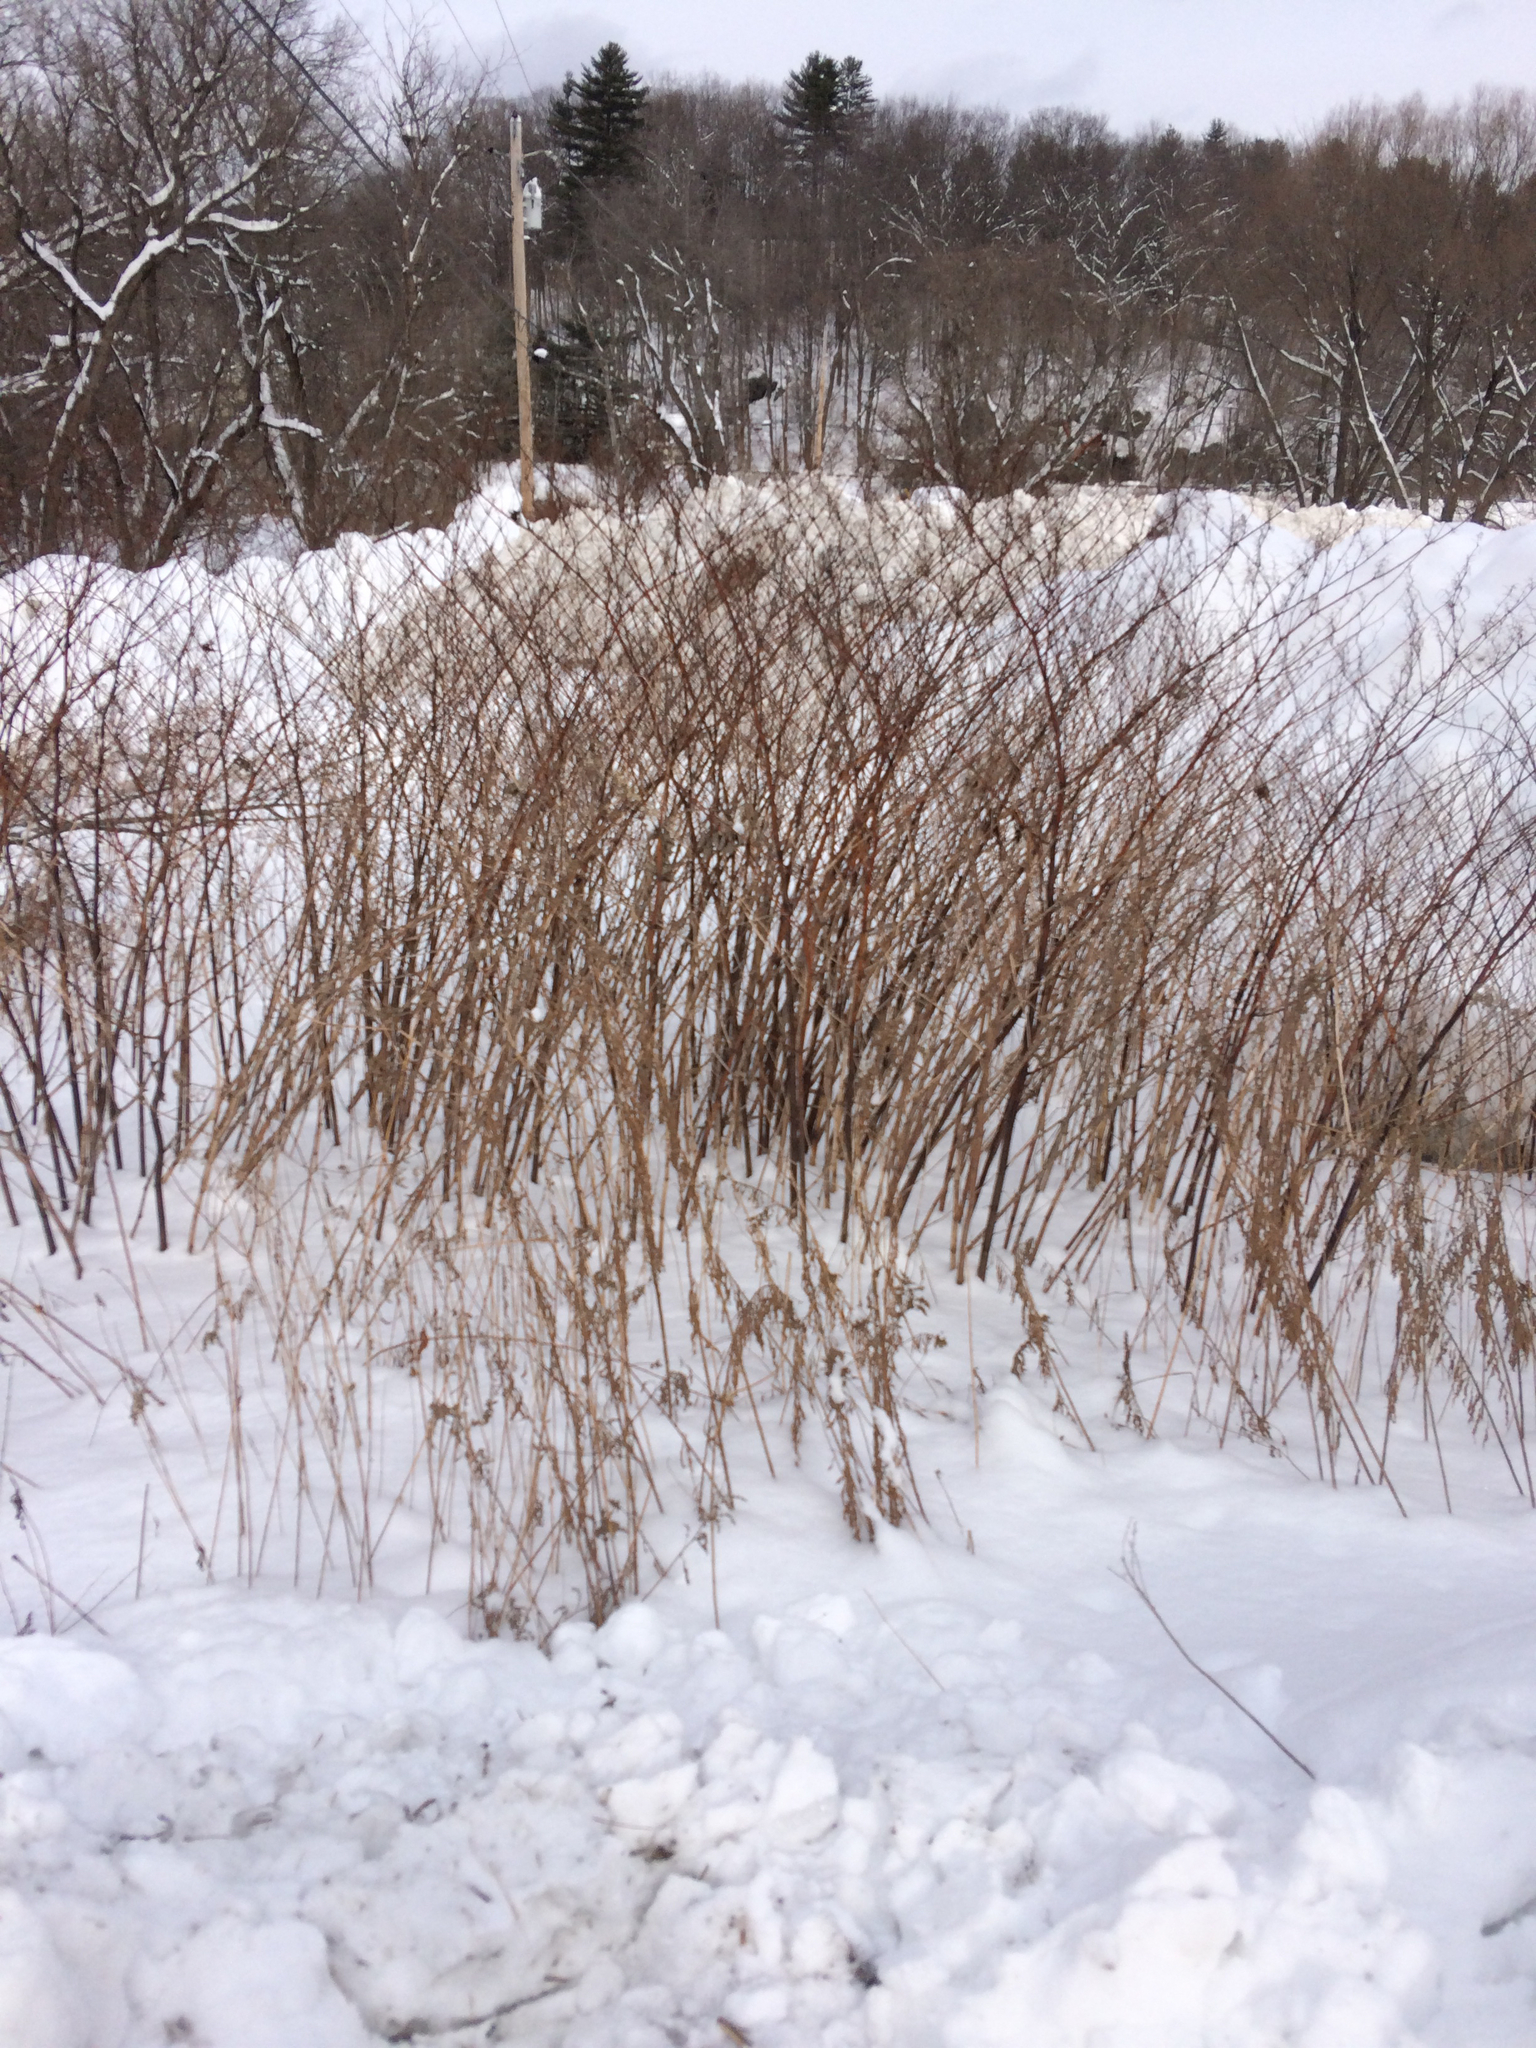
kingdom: Plantae
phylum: Tracheophyta
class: Magnoliopsida
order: Caryophyllales
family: Polygonaceae
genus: Reynoutria
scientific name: Reynoutria japonica
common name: Japanese knotweed
